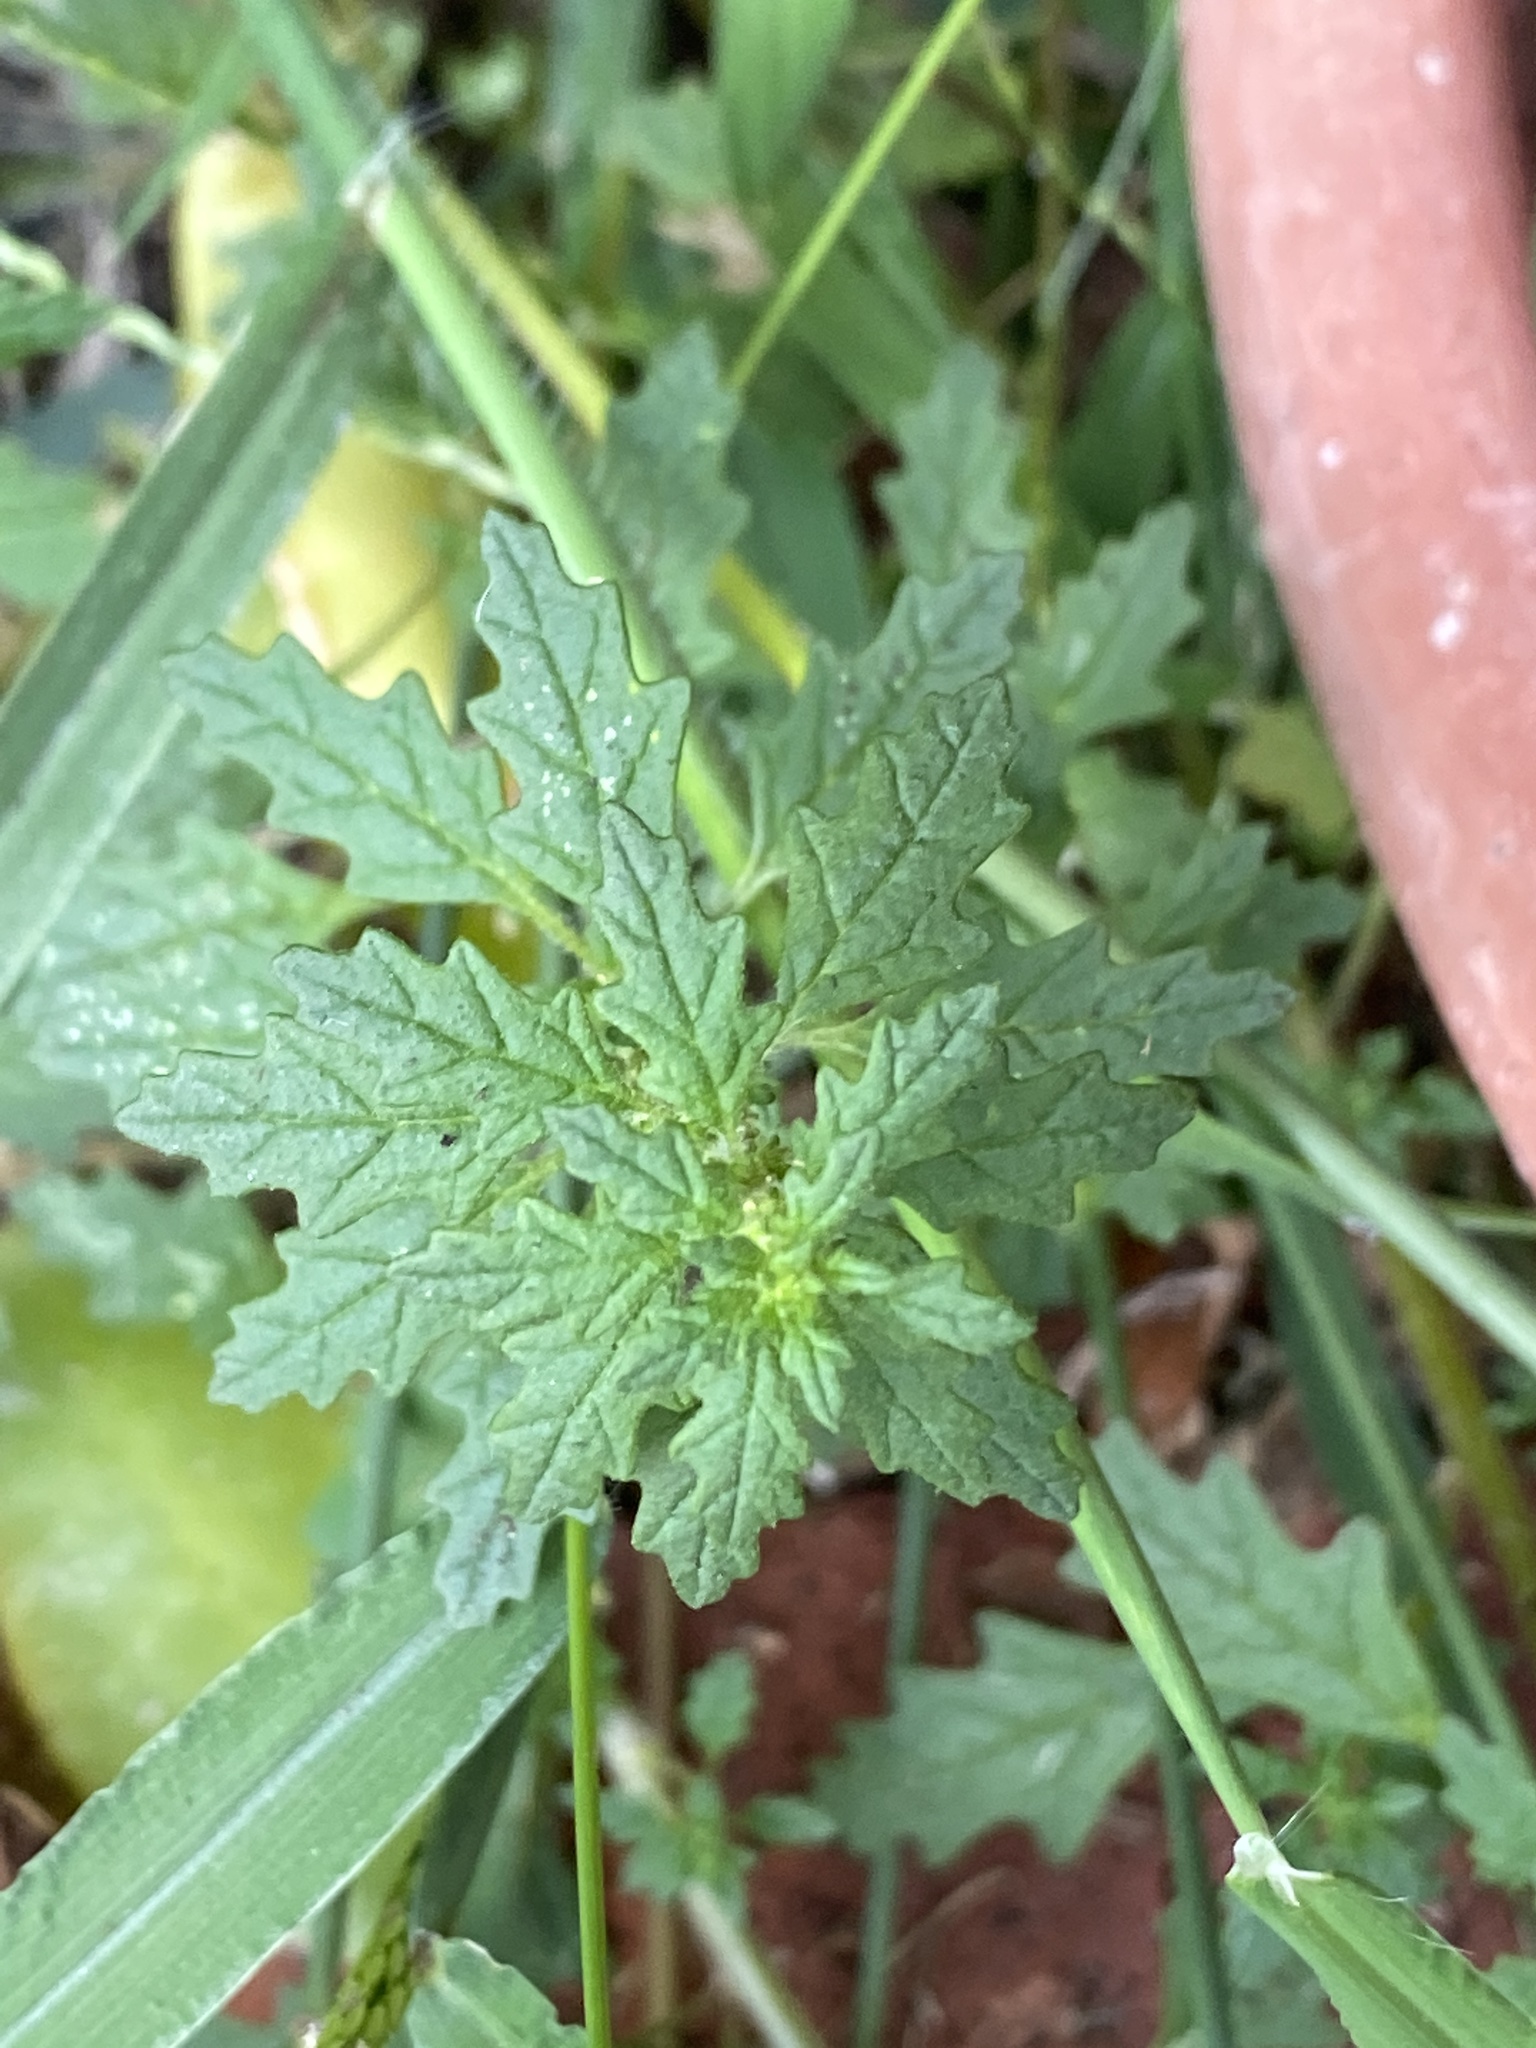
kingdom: Plantae
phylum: Tracheophyta
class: Magnoliopsida
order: Caryophyllales
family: Amaranthaceae
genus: Dysphania
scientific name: Dysphania pumilio
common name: Clammy goosefoot
